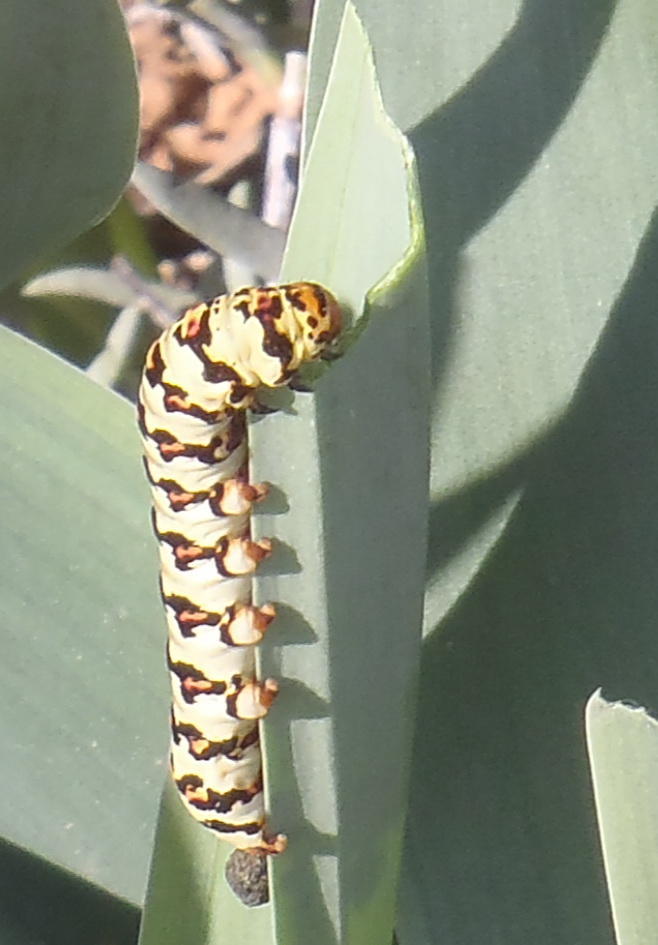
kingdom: Animalia
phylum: Arthropoda
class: Insecta
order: Lepidoptera
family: Noctuidae
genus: Diaphone
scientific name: Diaphone eumela
